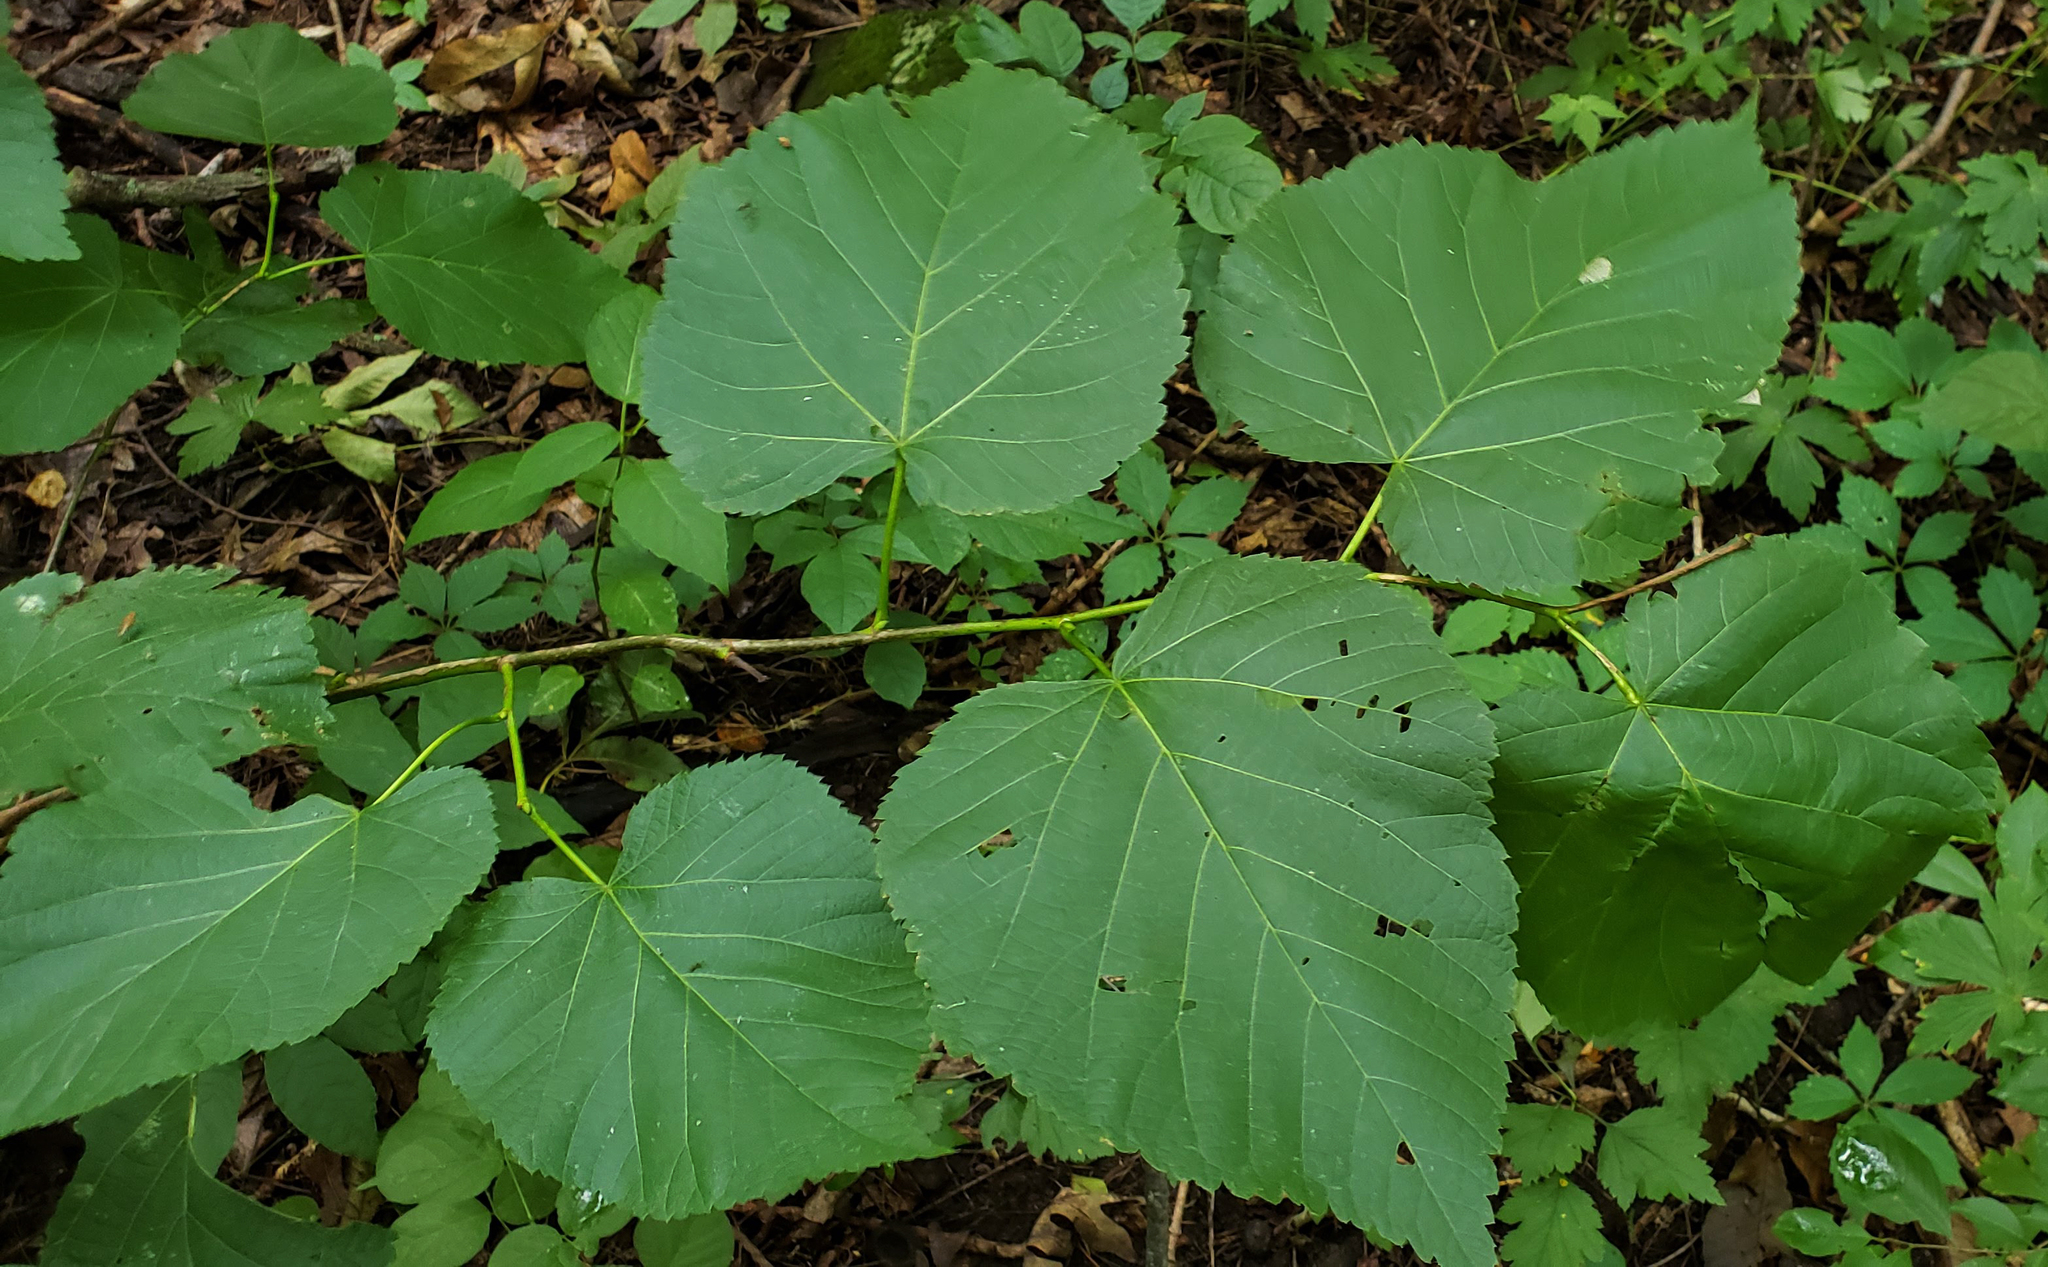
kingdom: Plantae
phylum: Tracheophyta
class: Magnoliopsida
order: Malvales
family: Malvaceae
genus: Tilia
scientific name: Tilia americana
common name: Basswood
